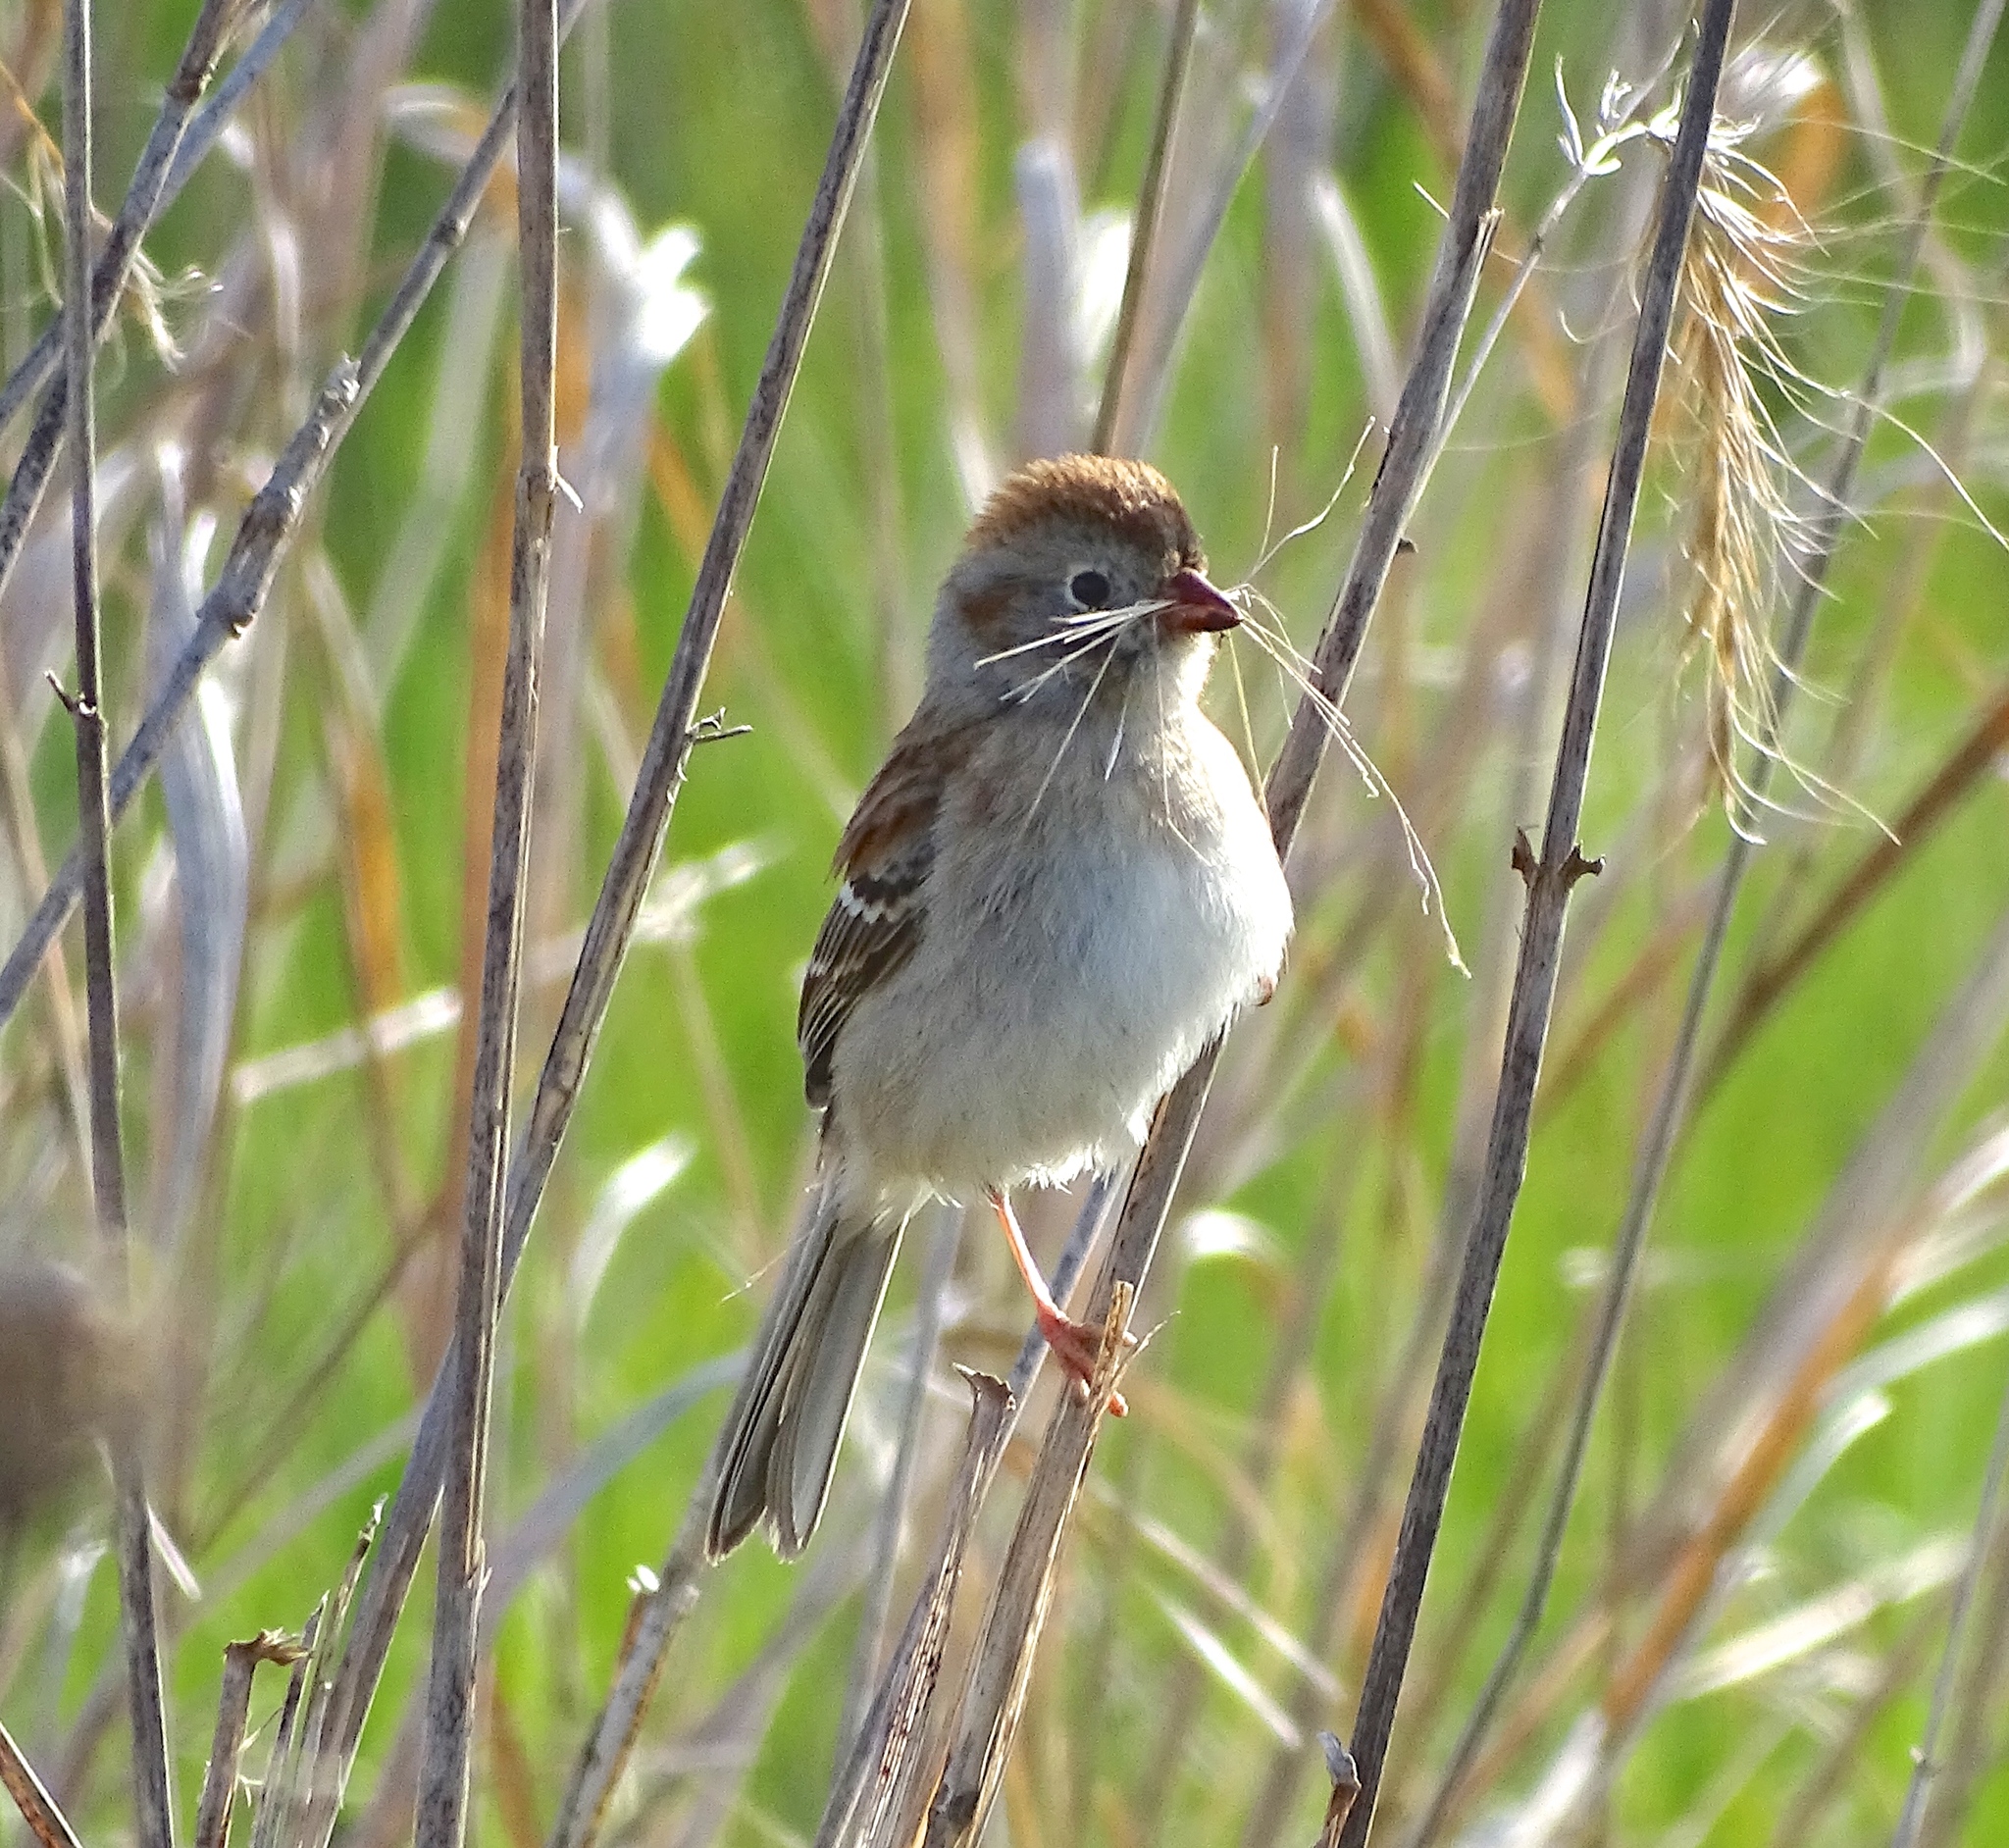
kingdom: Animalia
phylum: Chordata
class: Aves
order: Passeriformes
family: Passerellidae
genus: Spizella
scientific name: Spizella pusilla
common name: Field sparrow
